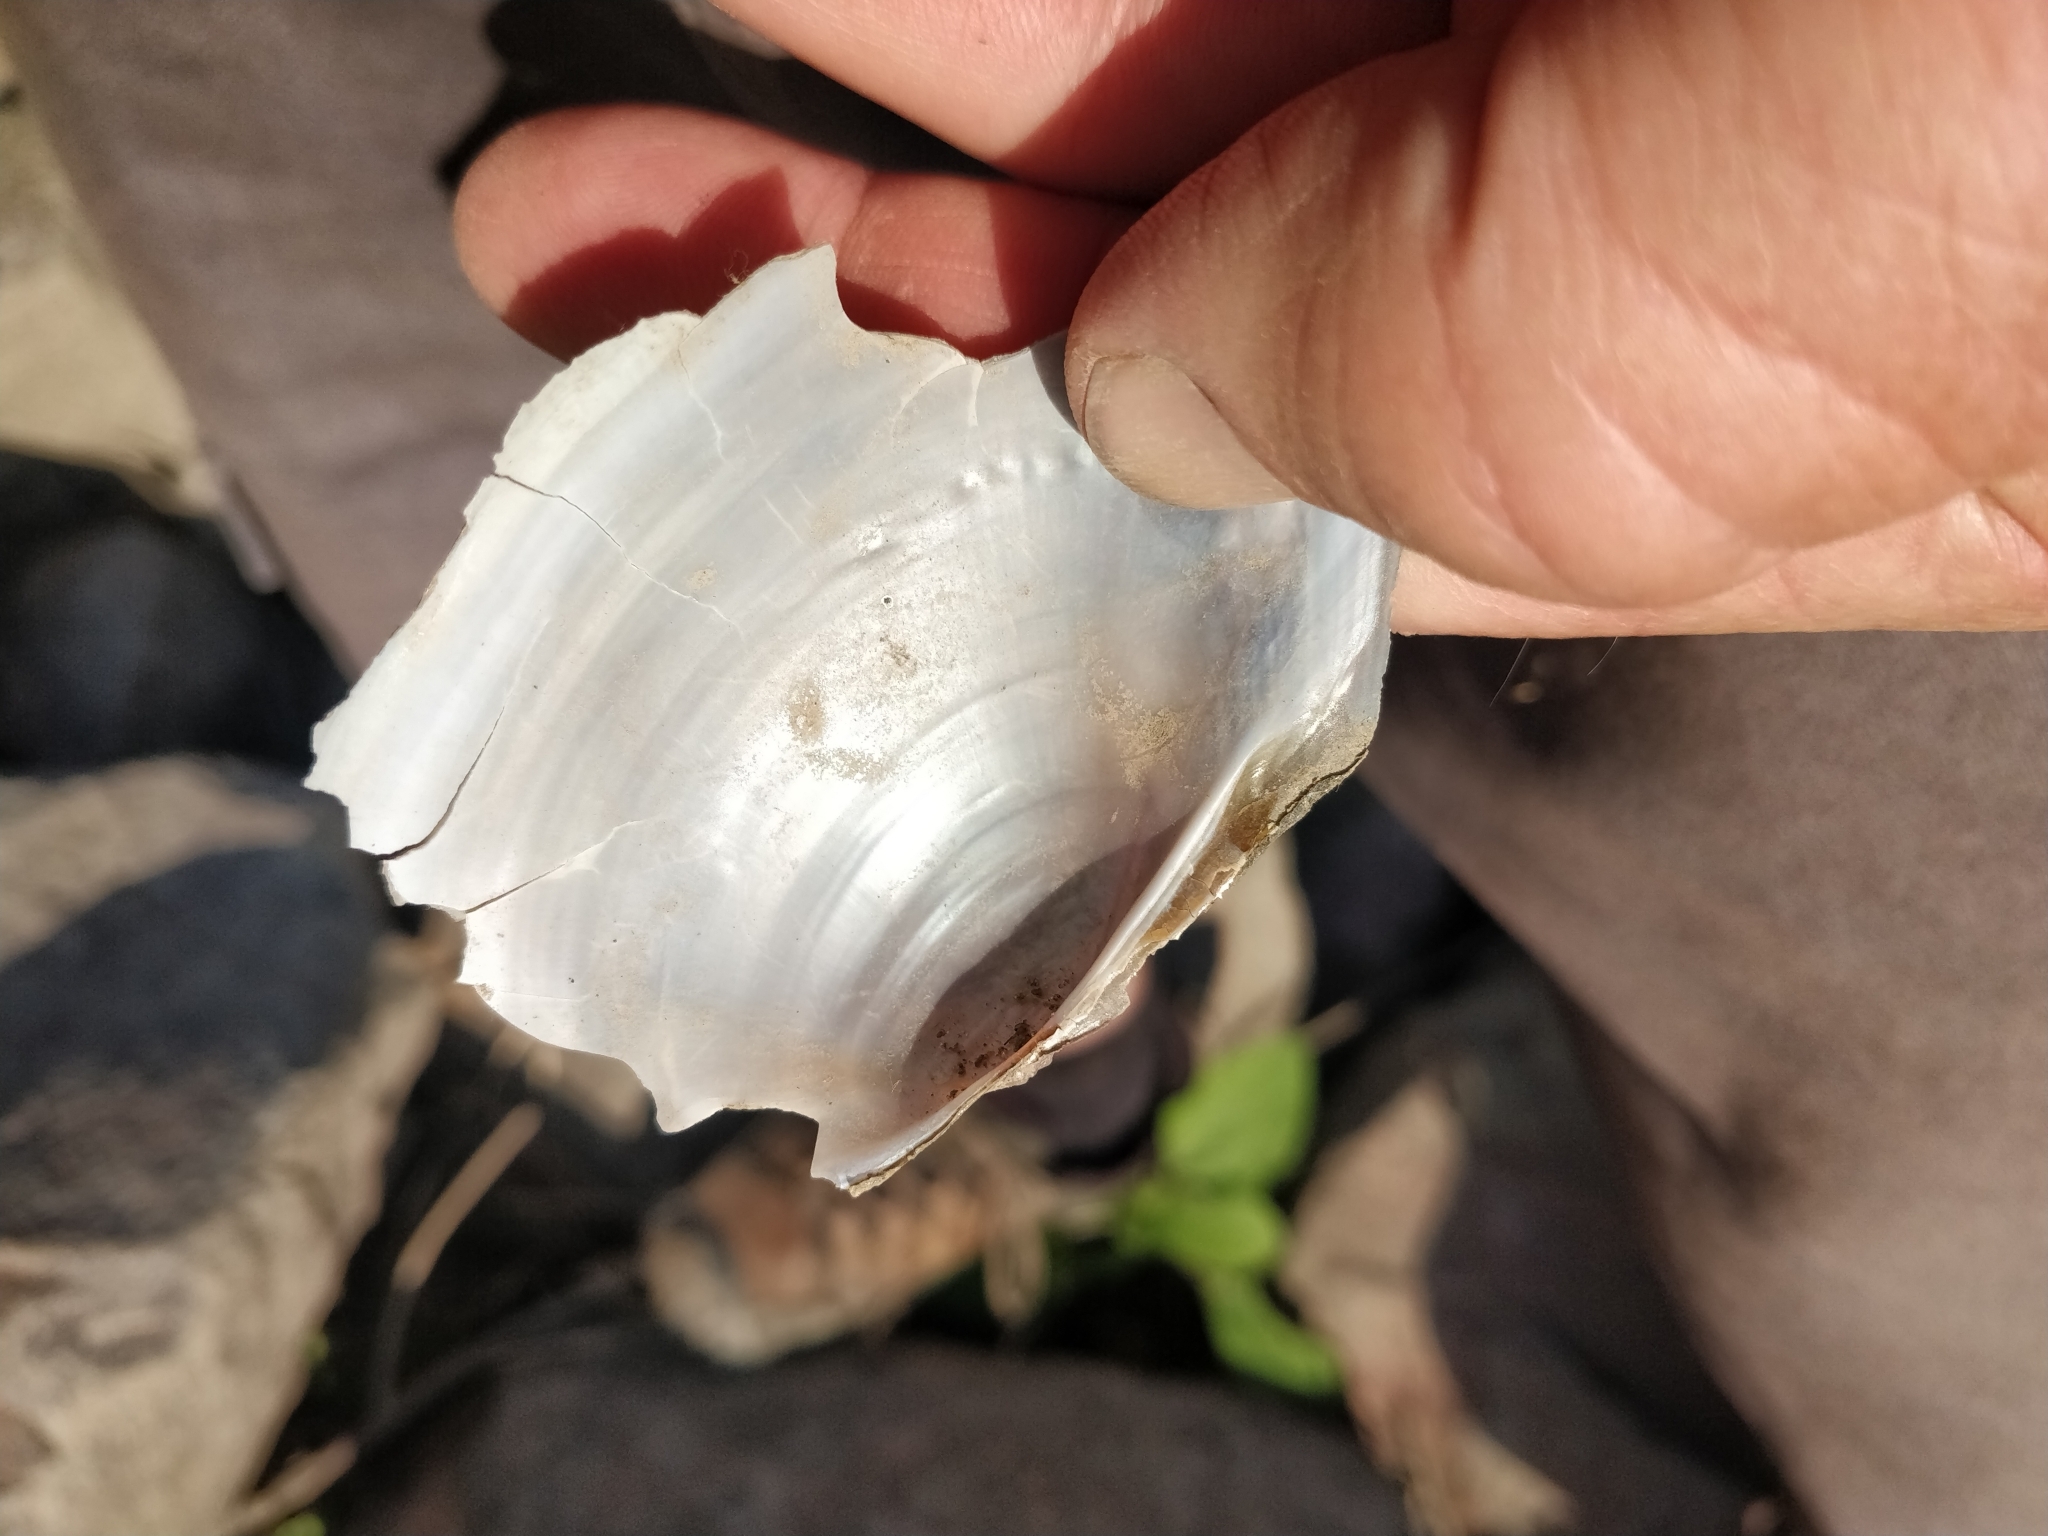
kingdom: Animalia
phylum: Mollusca
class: Bivalvia
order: Unionida
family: Unionidae
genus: Pyganodon
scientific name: Pyganodon grandis
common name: Giant floater
